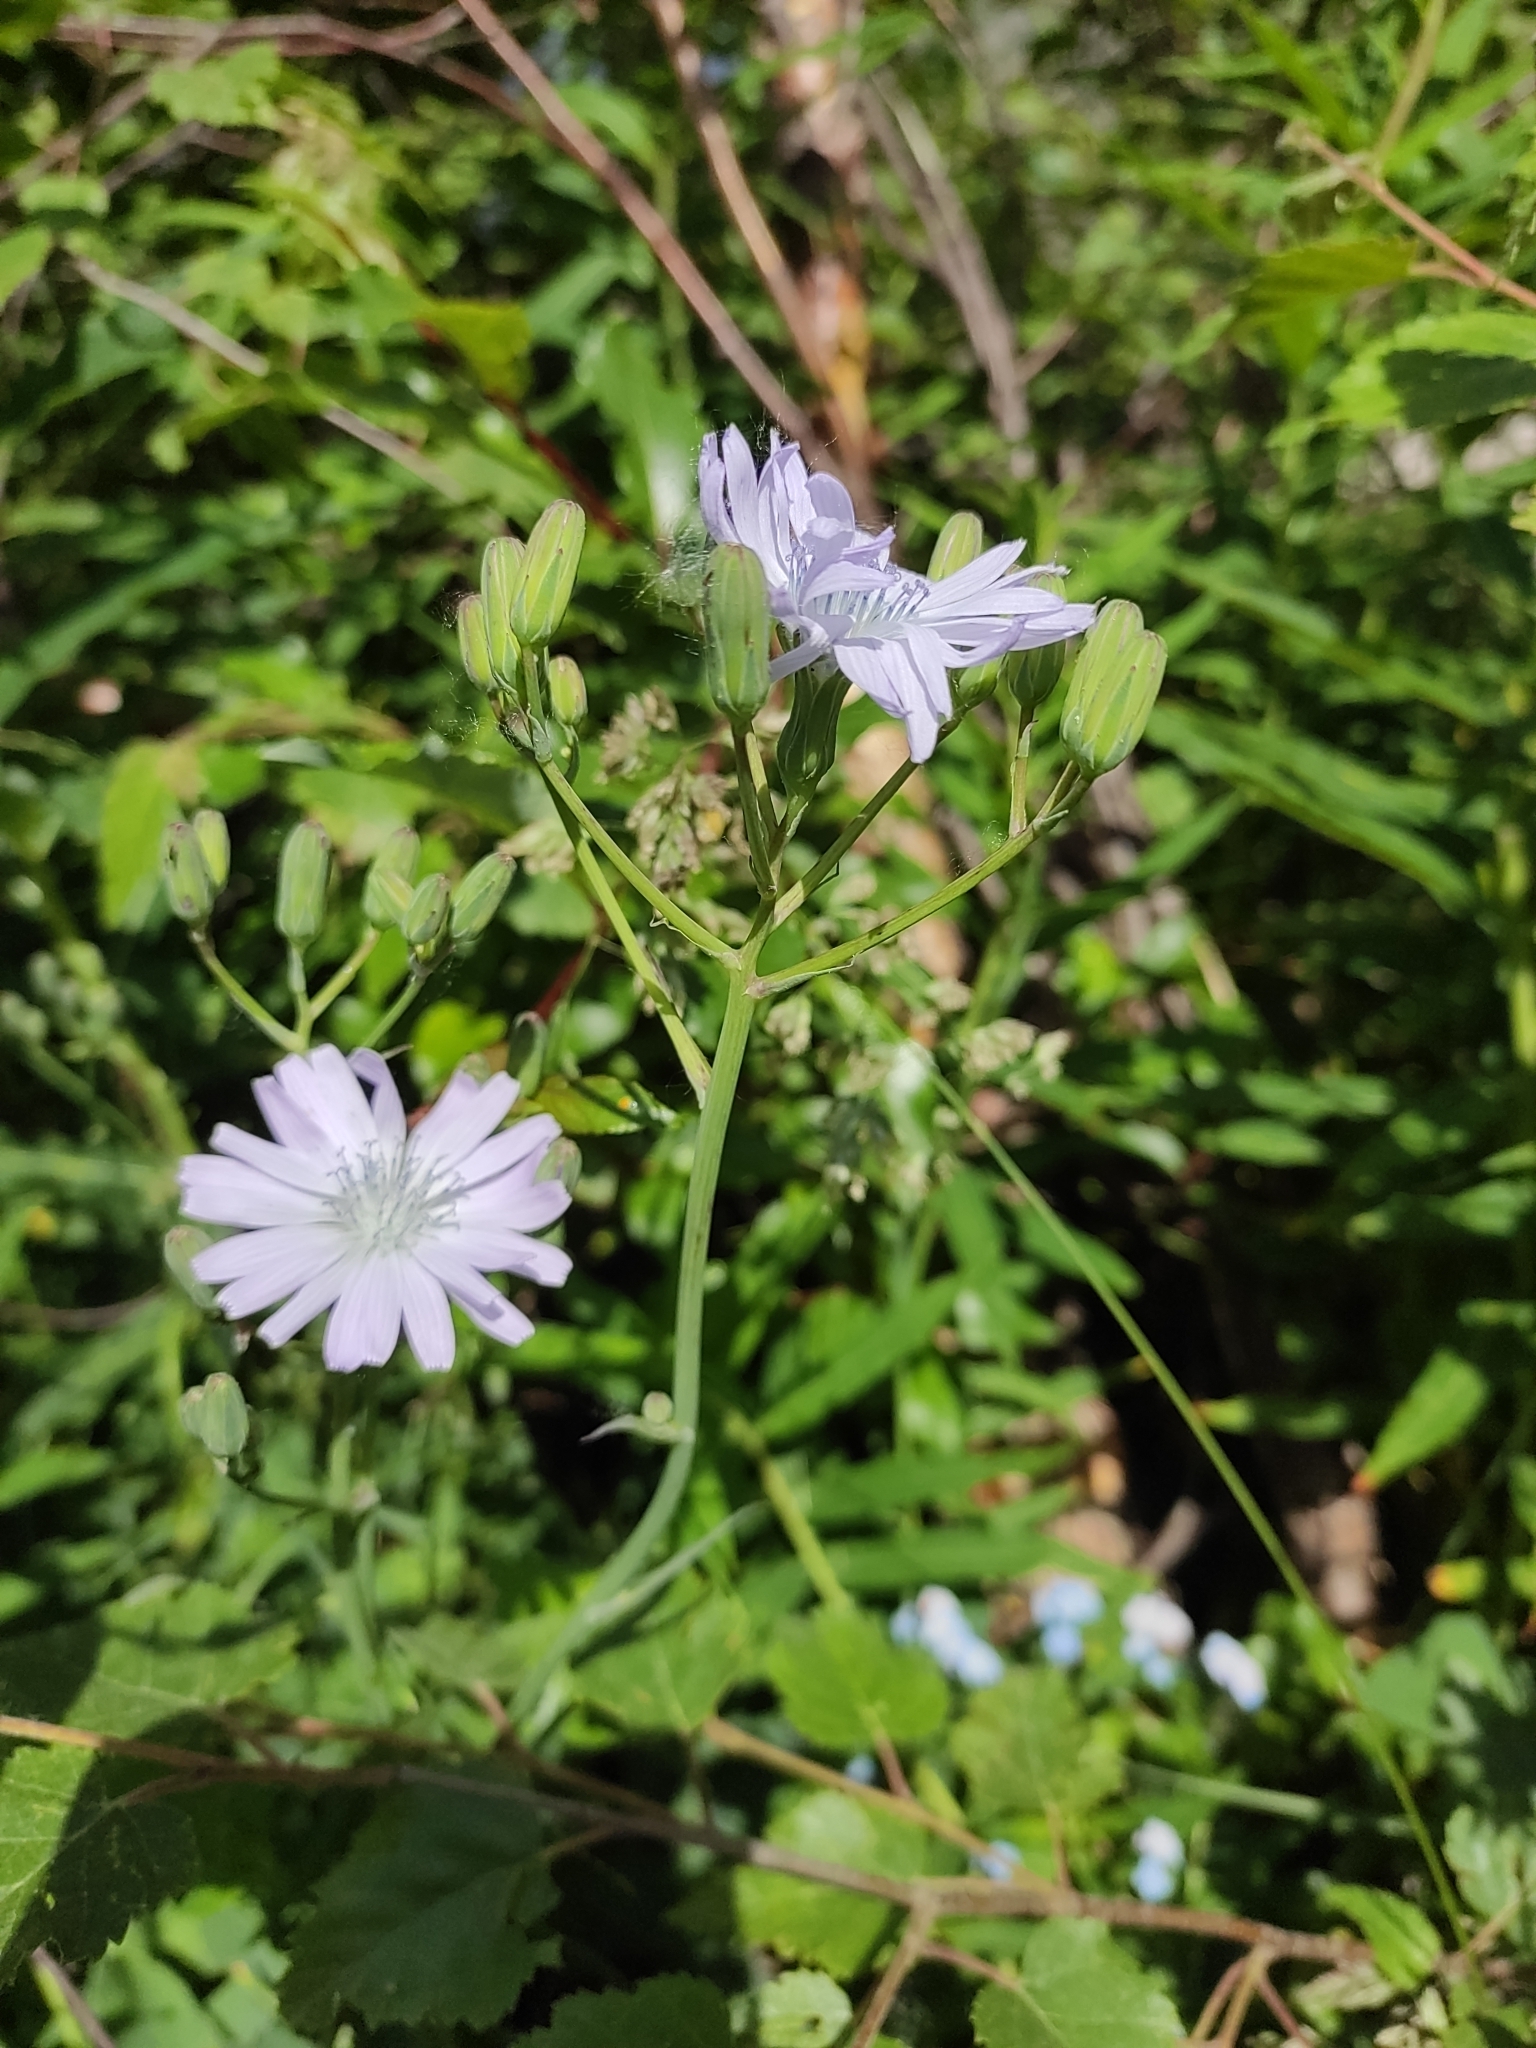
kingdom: Plantae
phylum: Tracheophyta
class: Magnoliopsida
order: Asterales
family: Asteraceae
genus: Lactuca
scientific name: Lactuca racemosa
